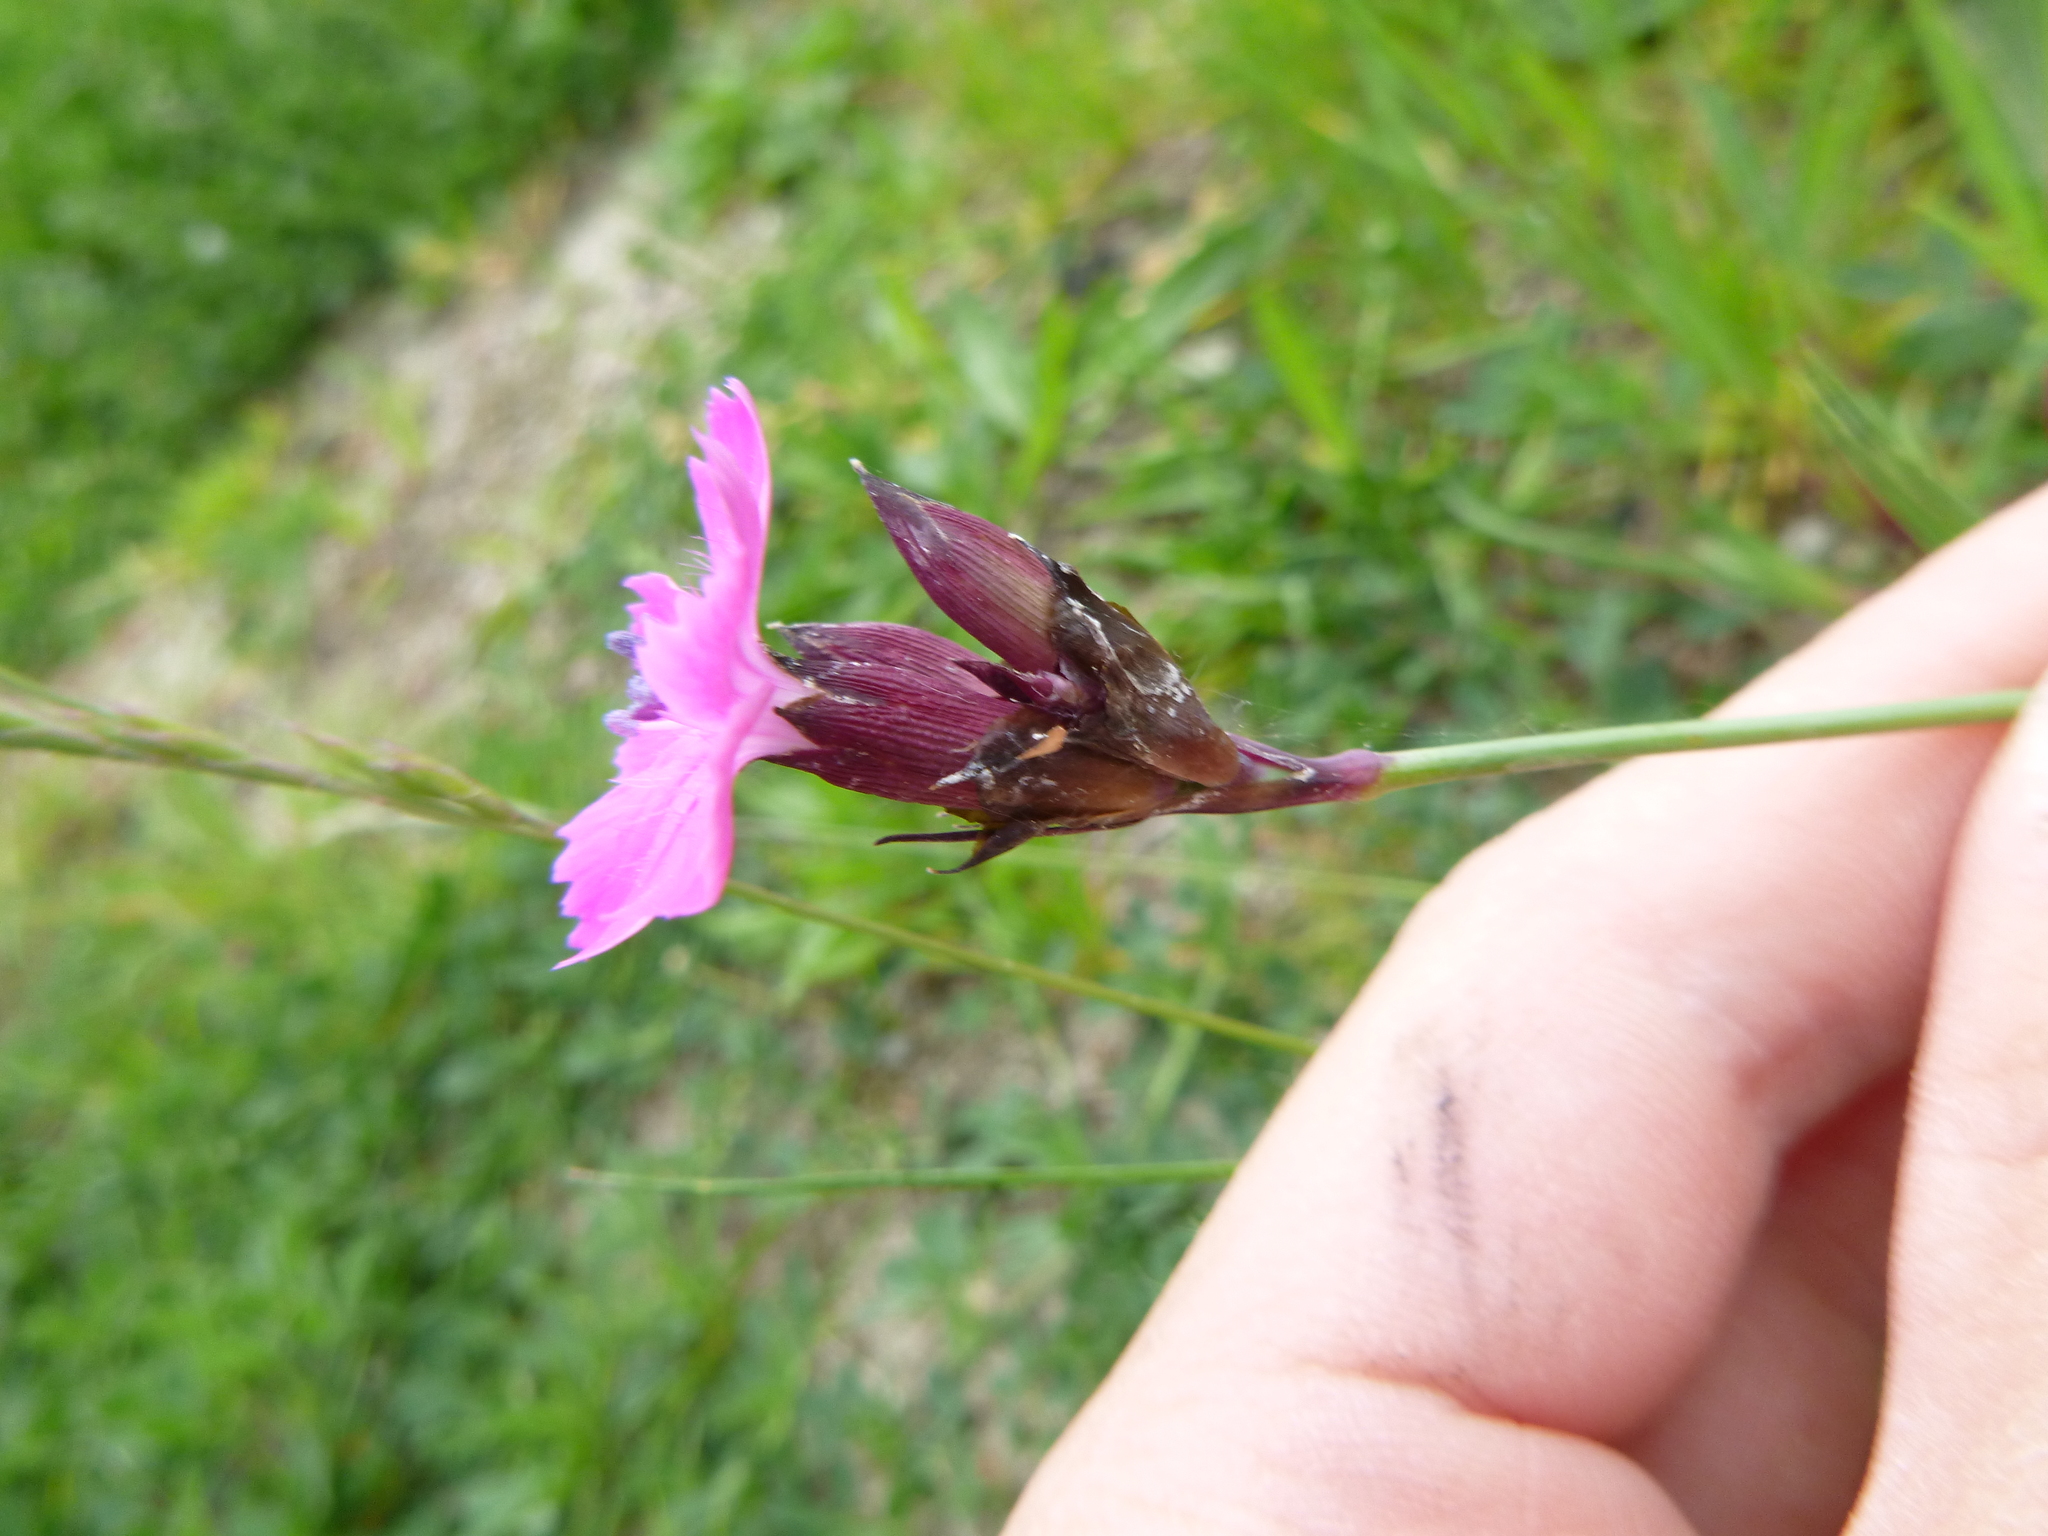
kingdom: Plantae
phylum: Tracheophyta
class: Magnoliopsida
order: Caryophyllales
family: Caryophyllaceae
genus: Dianthus
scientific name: Dianthus carthusianorum
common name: Carthusian pink
